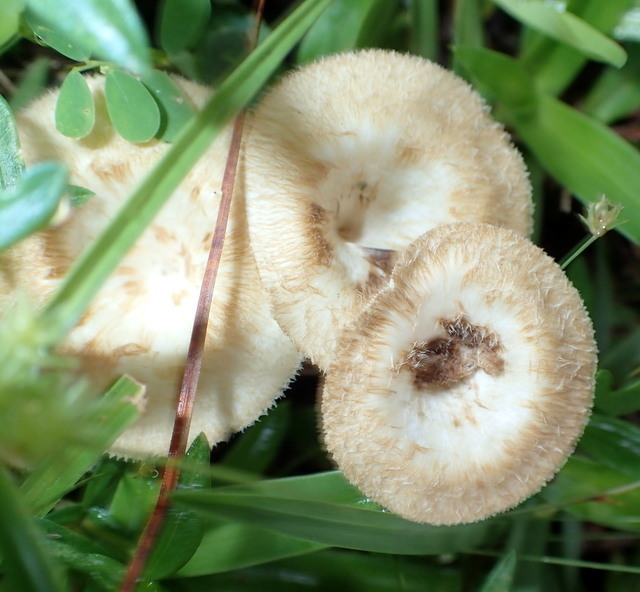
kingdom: Fungi
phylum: Basidiomycota
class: Agaricomycetes
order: Polyporales
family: Polyporaceae
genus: Lentinus
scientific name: Lentinus crinitus
